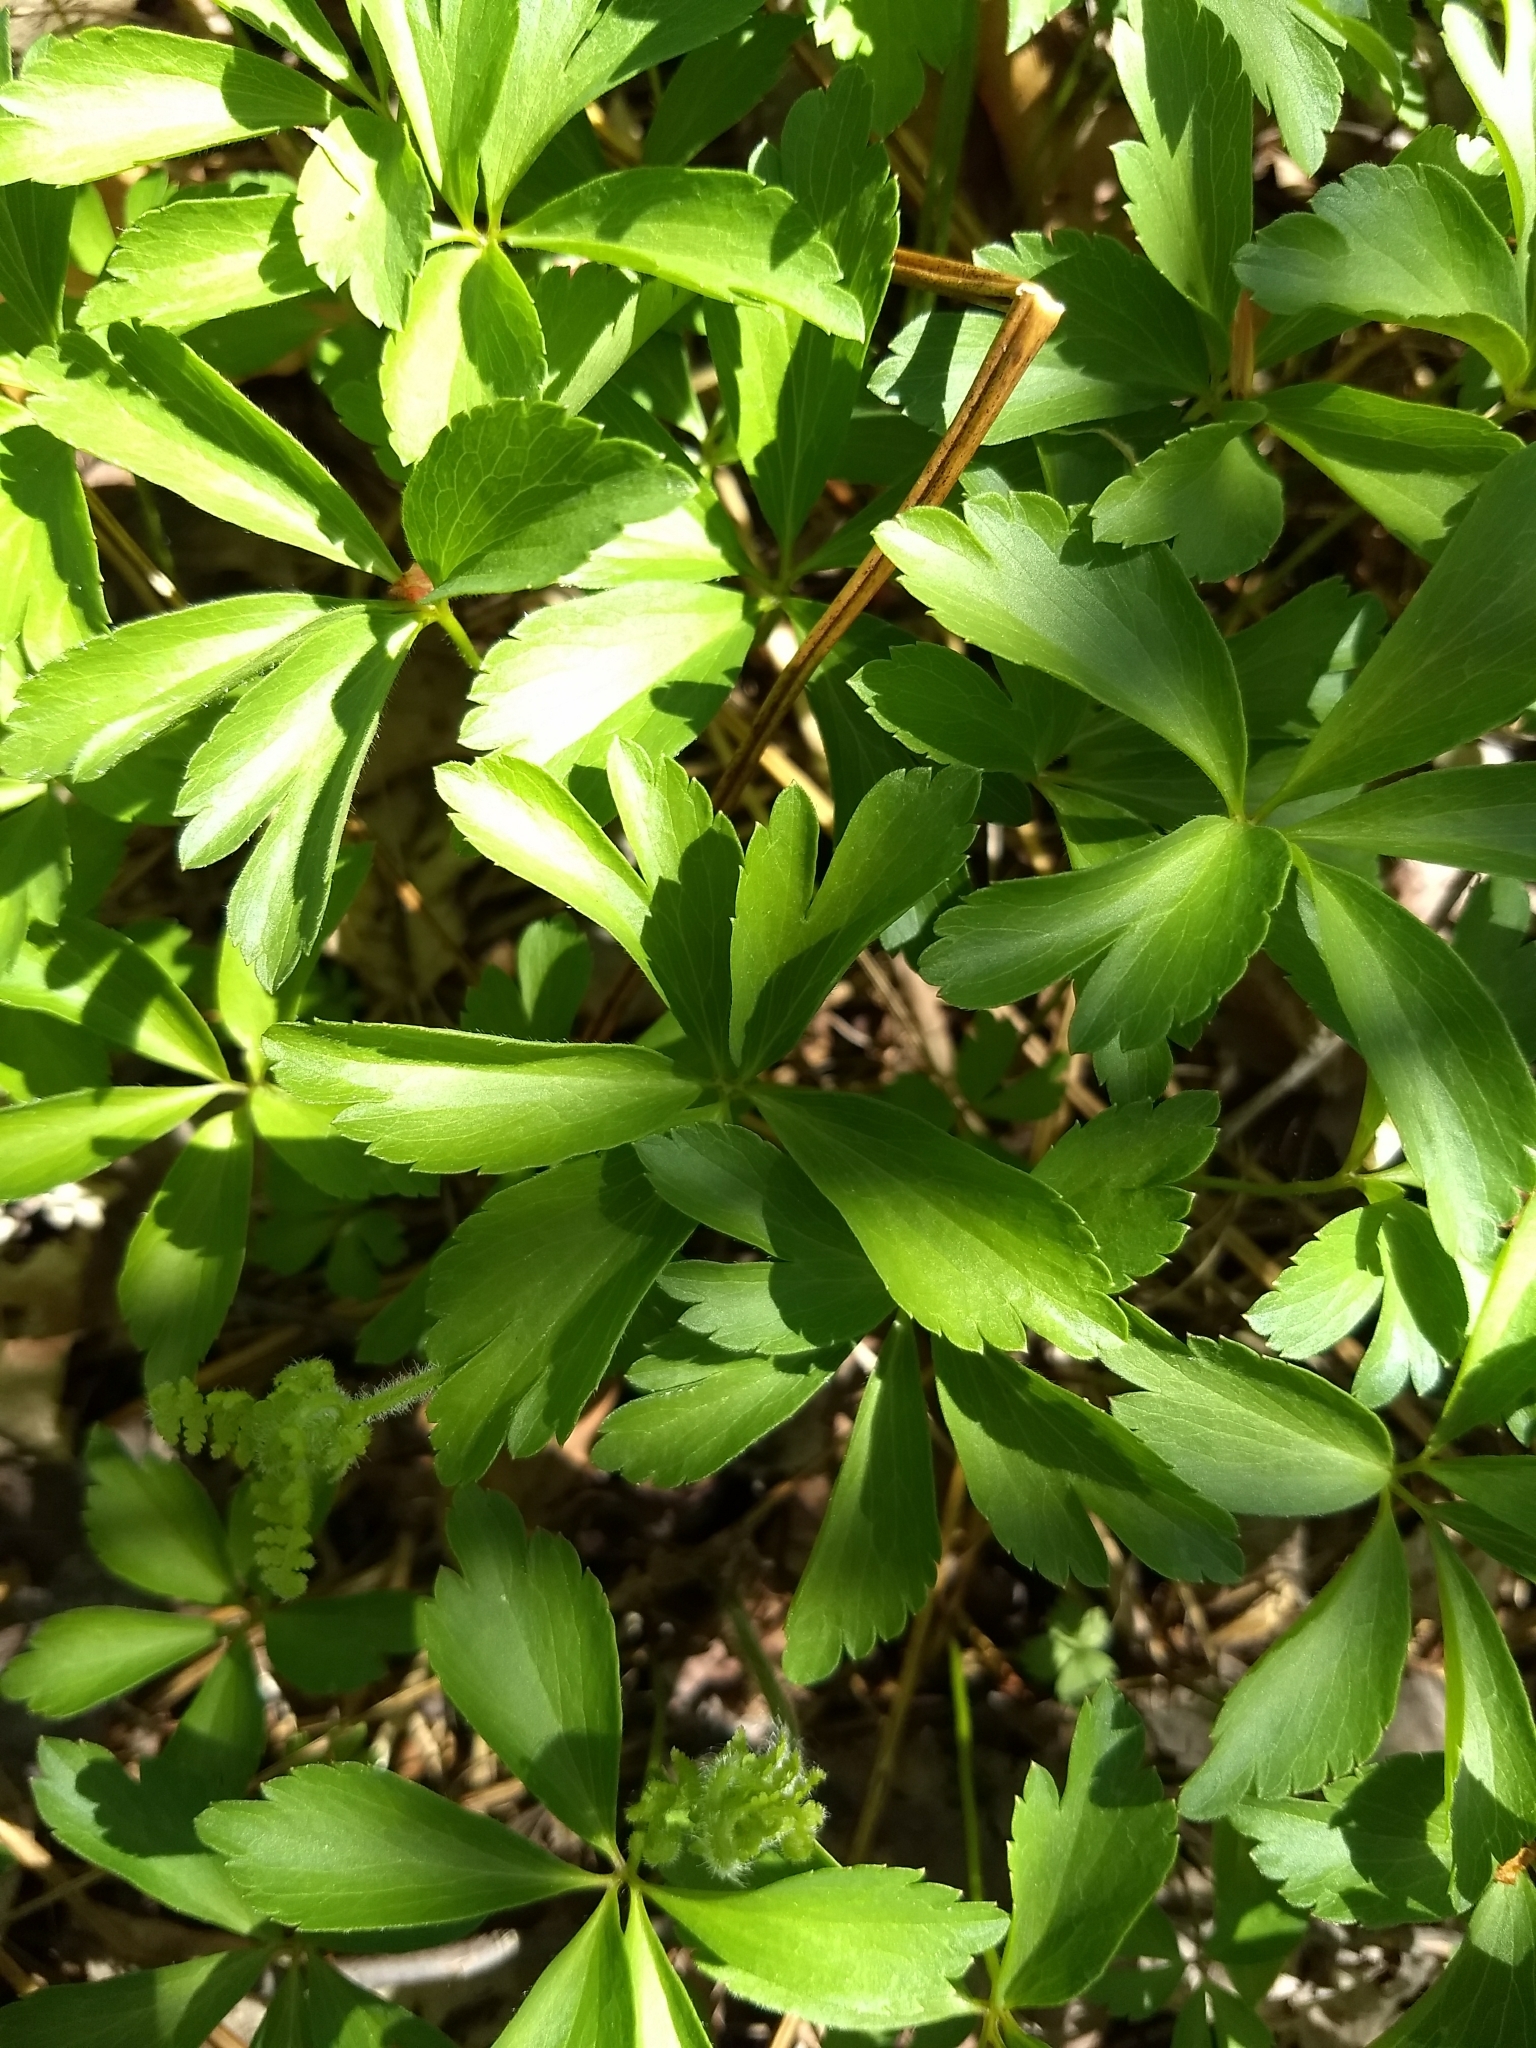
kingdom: Plantae
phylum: Tracheophyta
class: Magnoliopsida
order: Ranunculales
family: Ranunculaceae
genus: Anemone
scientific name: Anemone quinquefolia
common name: Wood anemone
